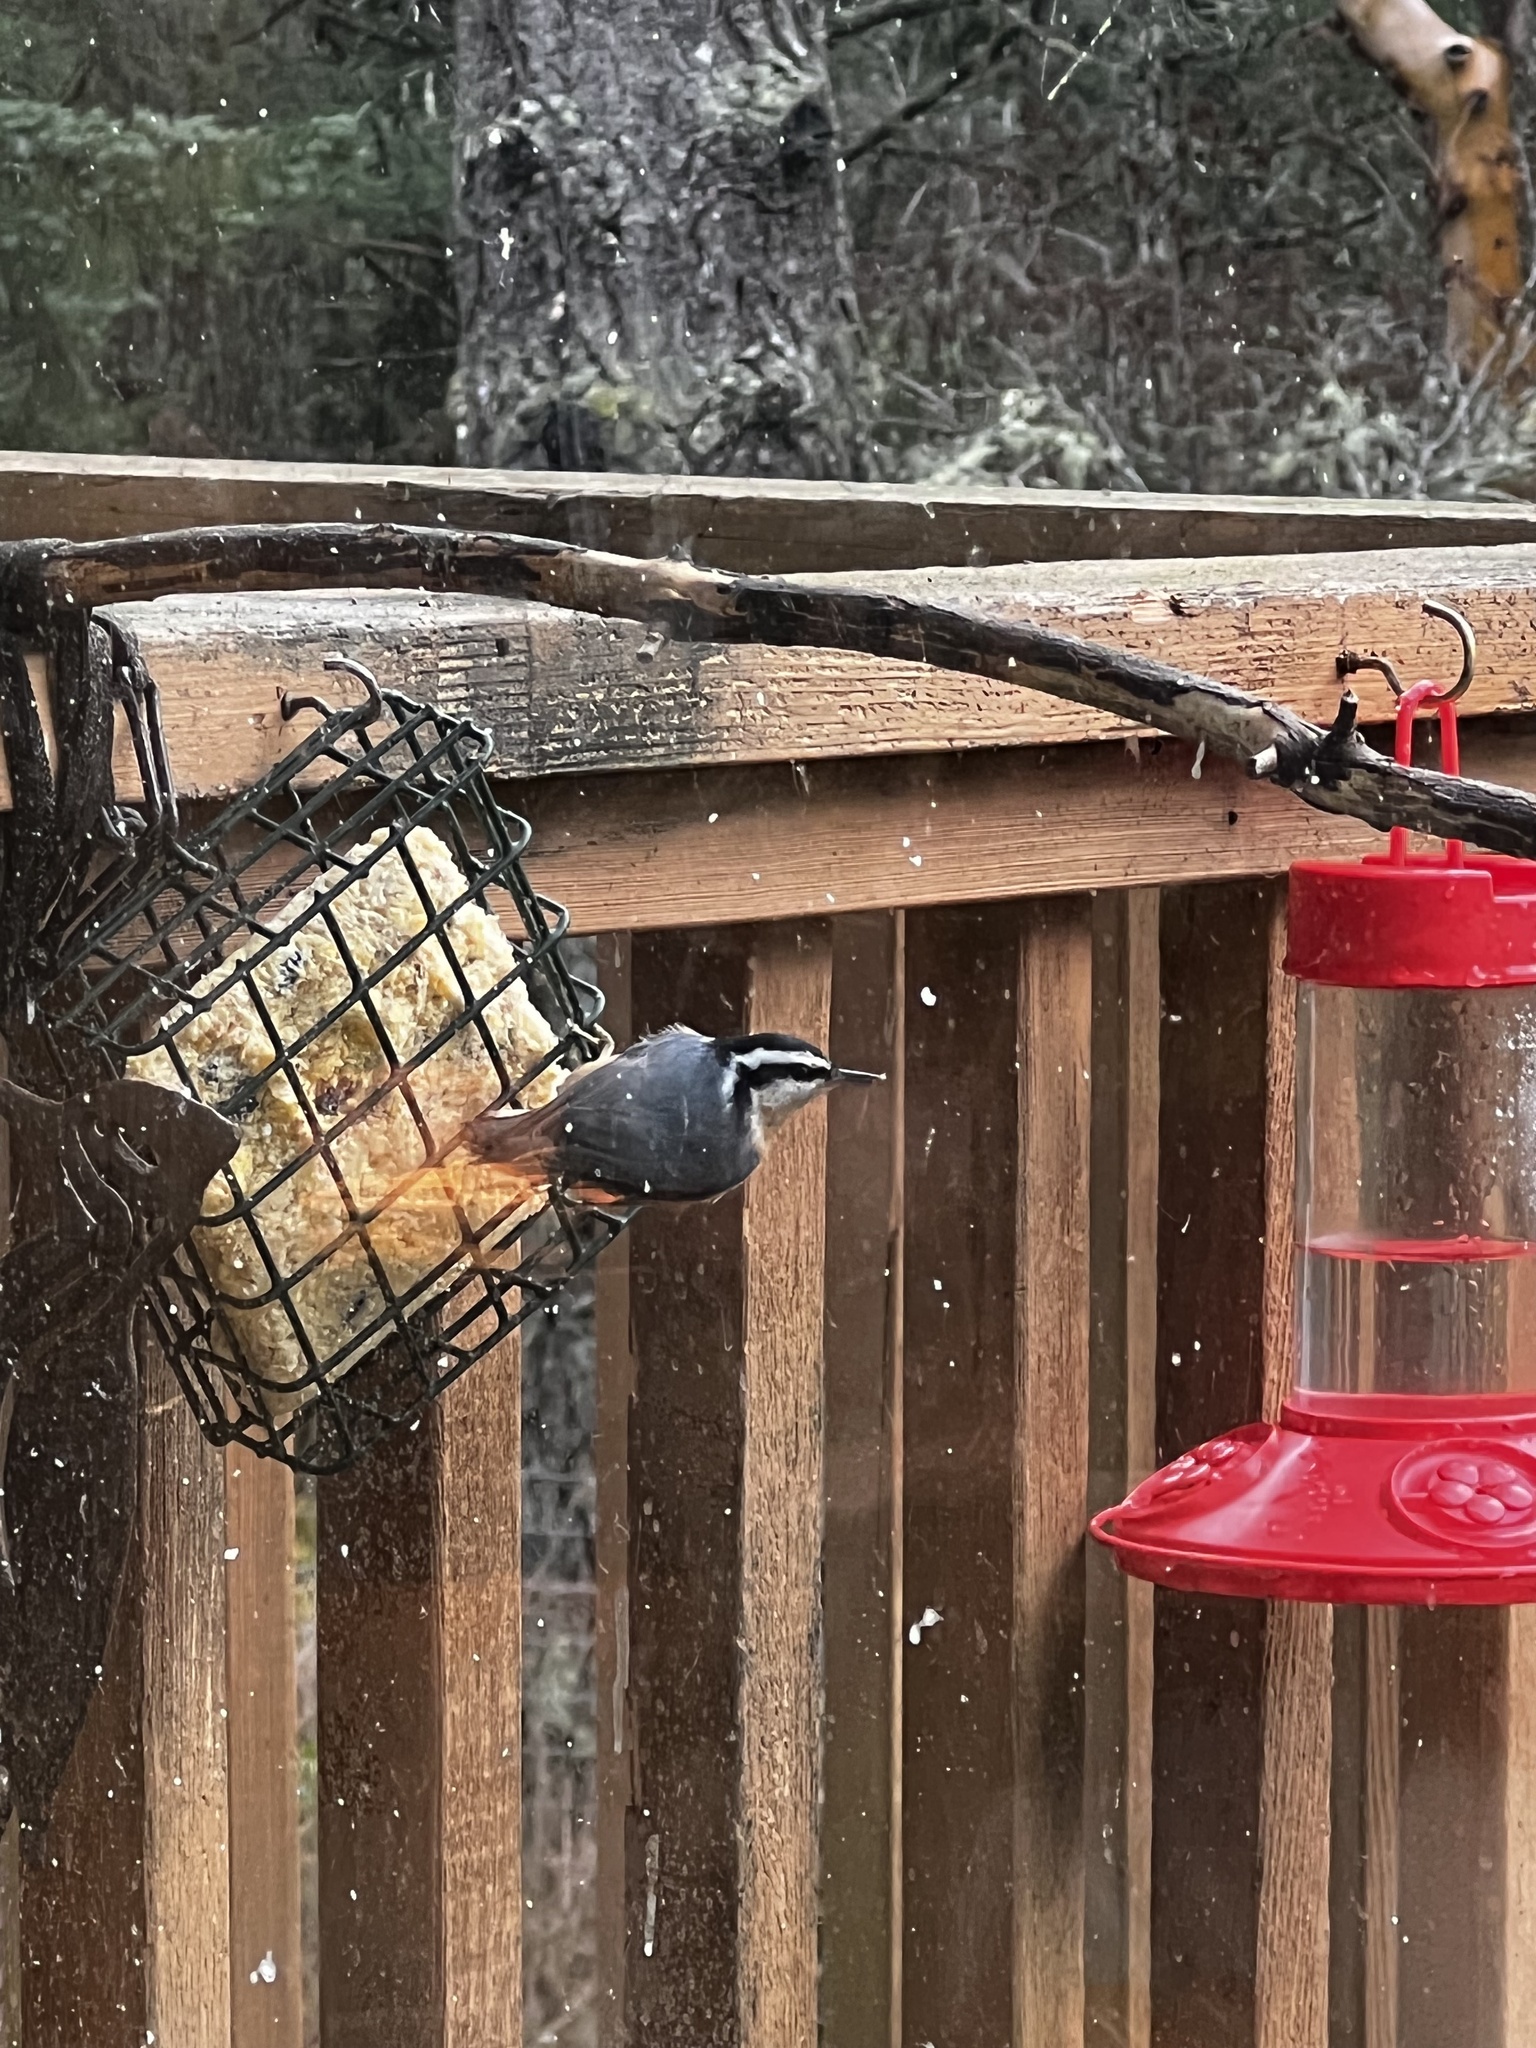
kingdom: Animalia
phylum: Chordata
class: Aves
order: Passeriformes
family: Sittidae
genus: Sitta
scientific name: Sitta canadensis
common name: Red-breasted nuthatch
